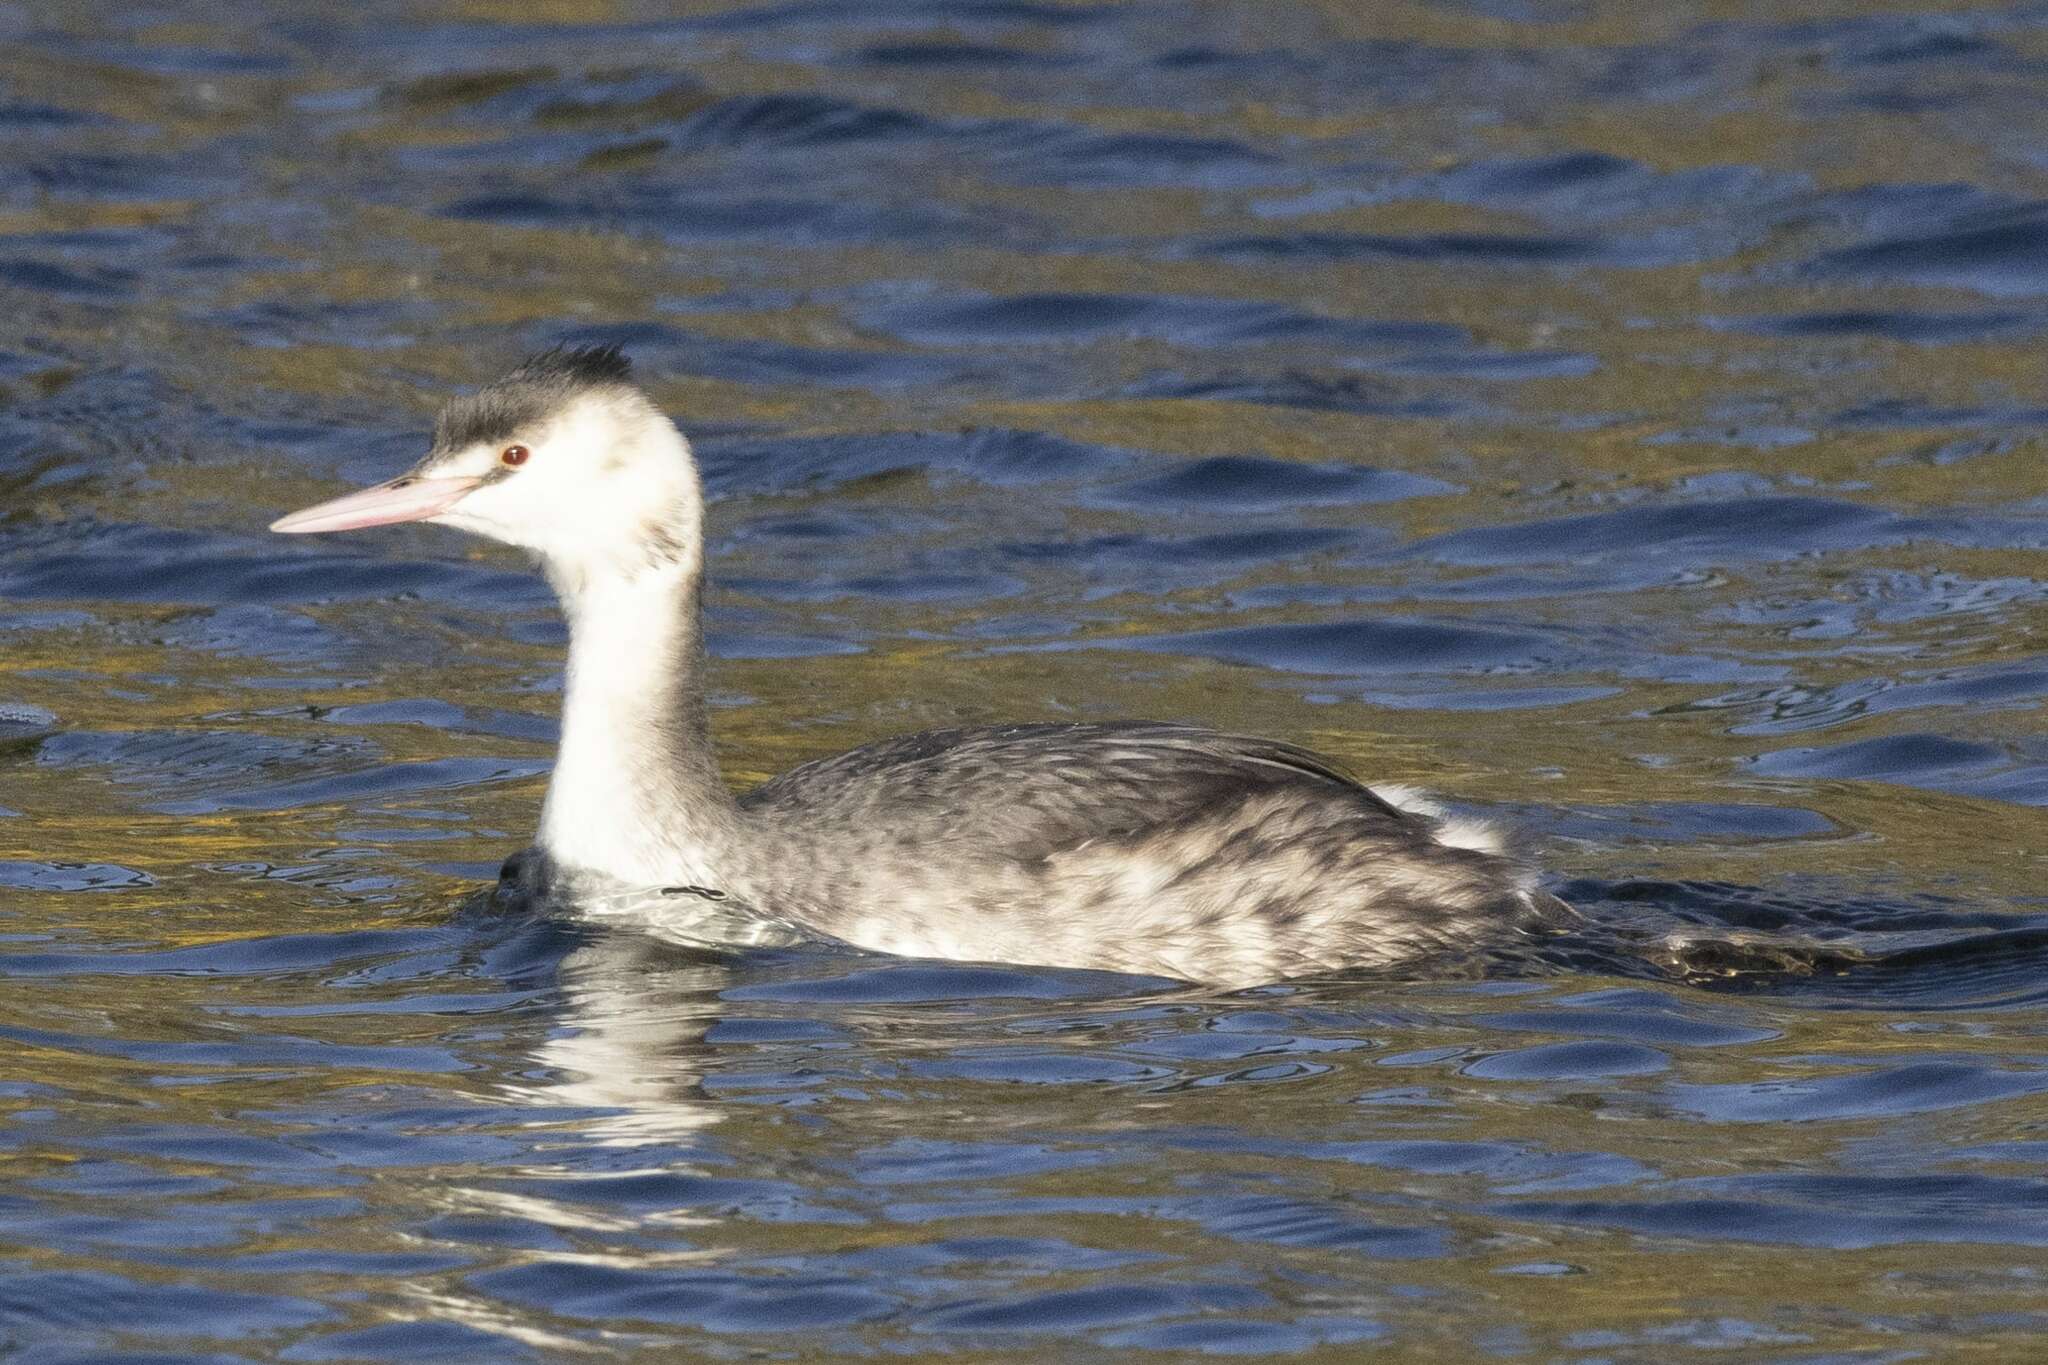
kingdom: Animalia
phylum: Chordata
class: Aves
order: Podicipediformes
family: Podicipedidae
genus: Podiceps
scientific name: Podiceps cristatus
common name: Great crested grebe
